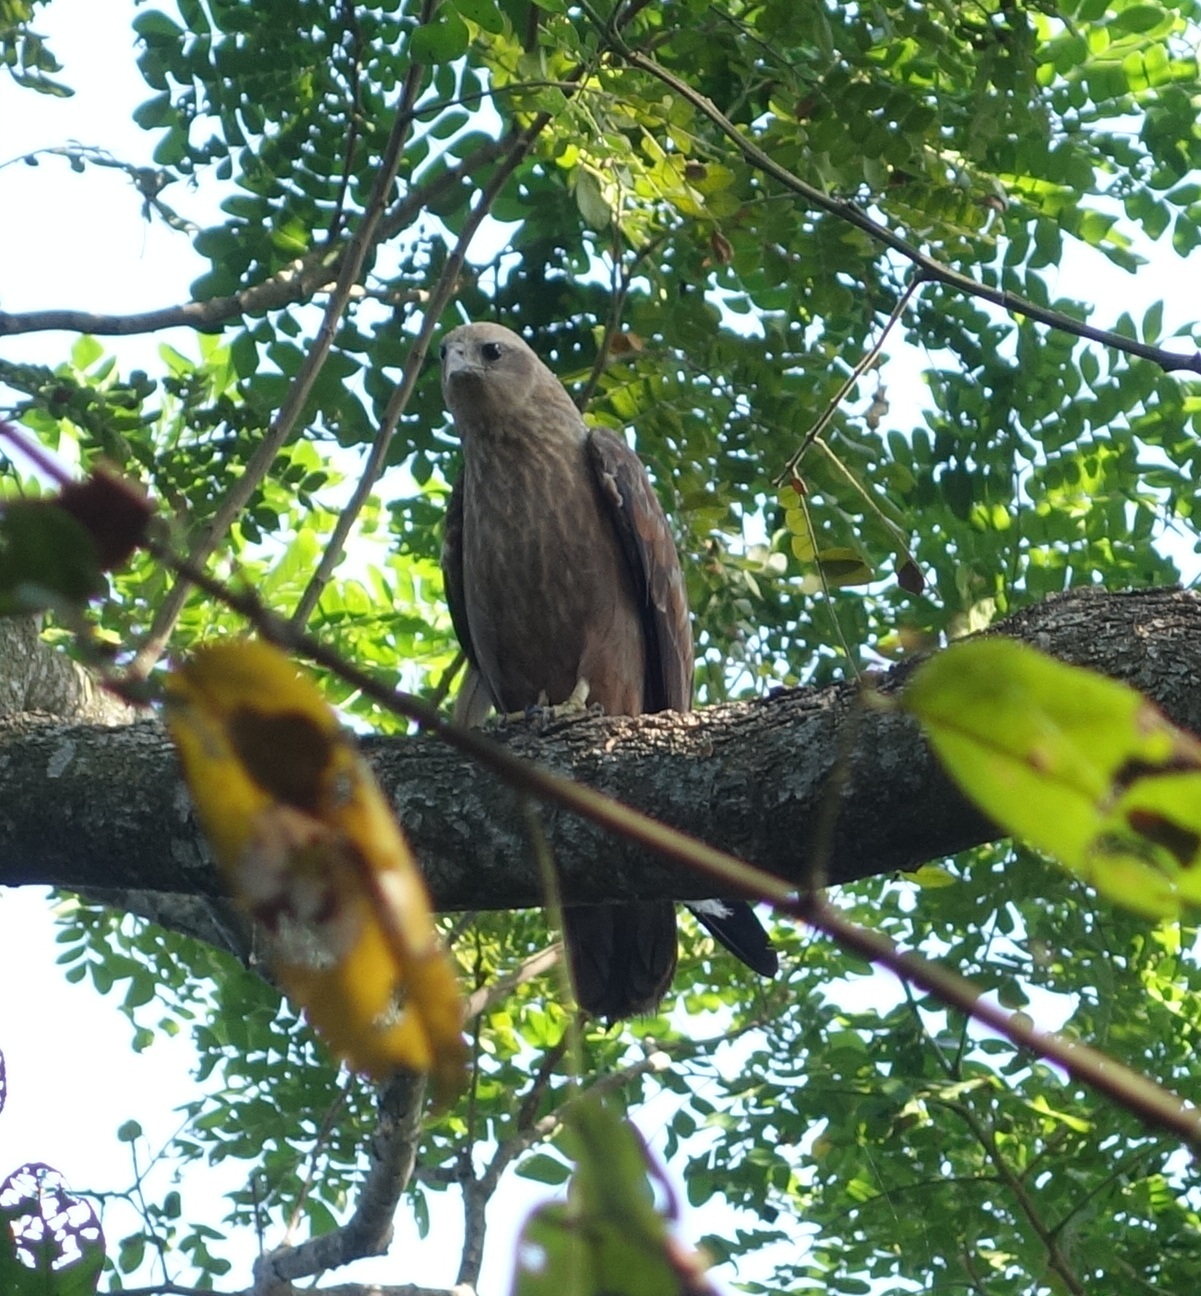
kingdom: Animalia
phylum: Chordata
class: Aves
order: Accipitriformes
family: Accipitridae
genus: Haliastur
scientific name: Haliastur indus
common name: Brahminy kite
